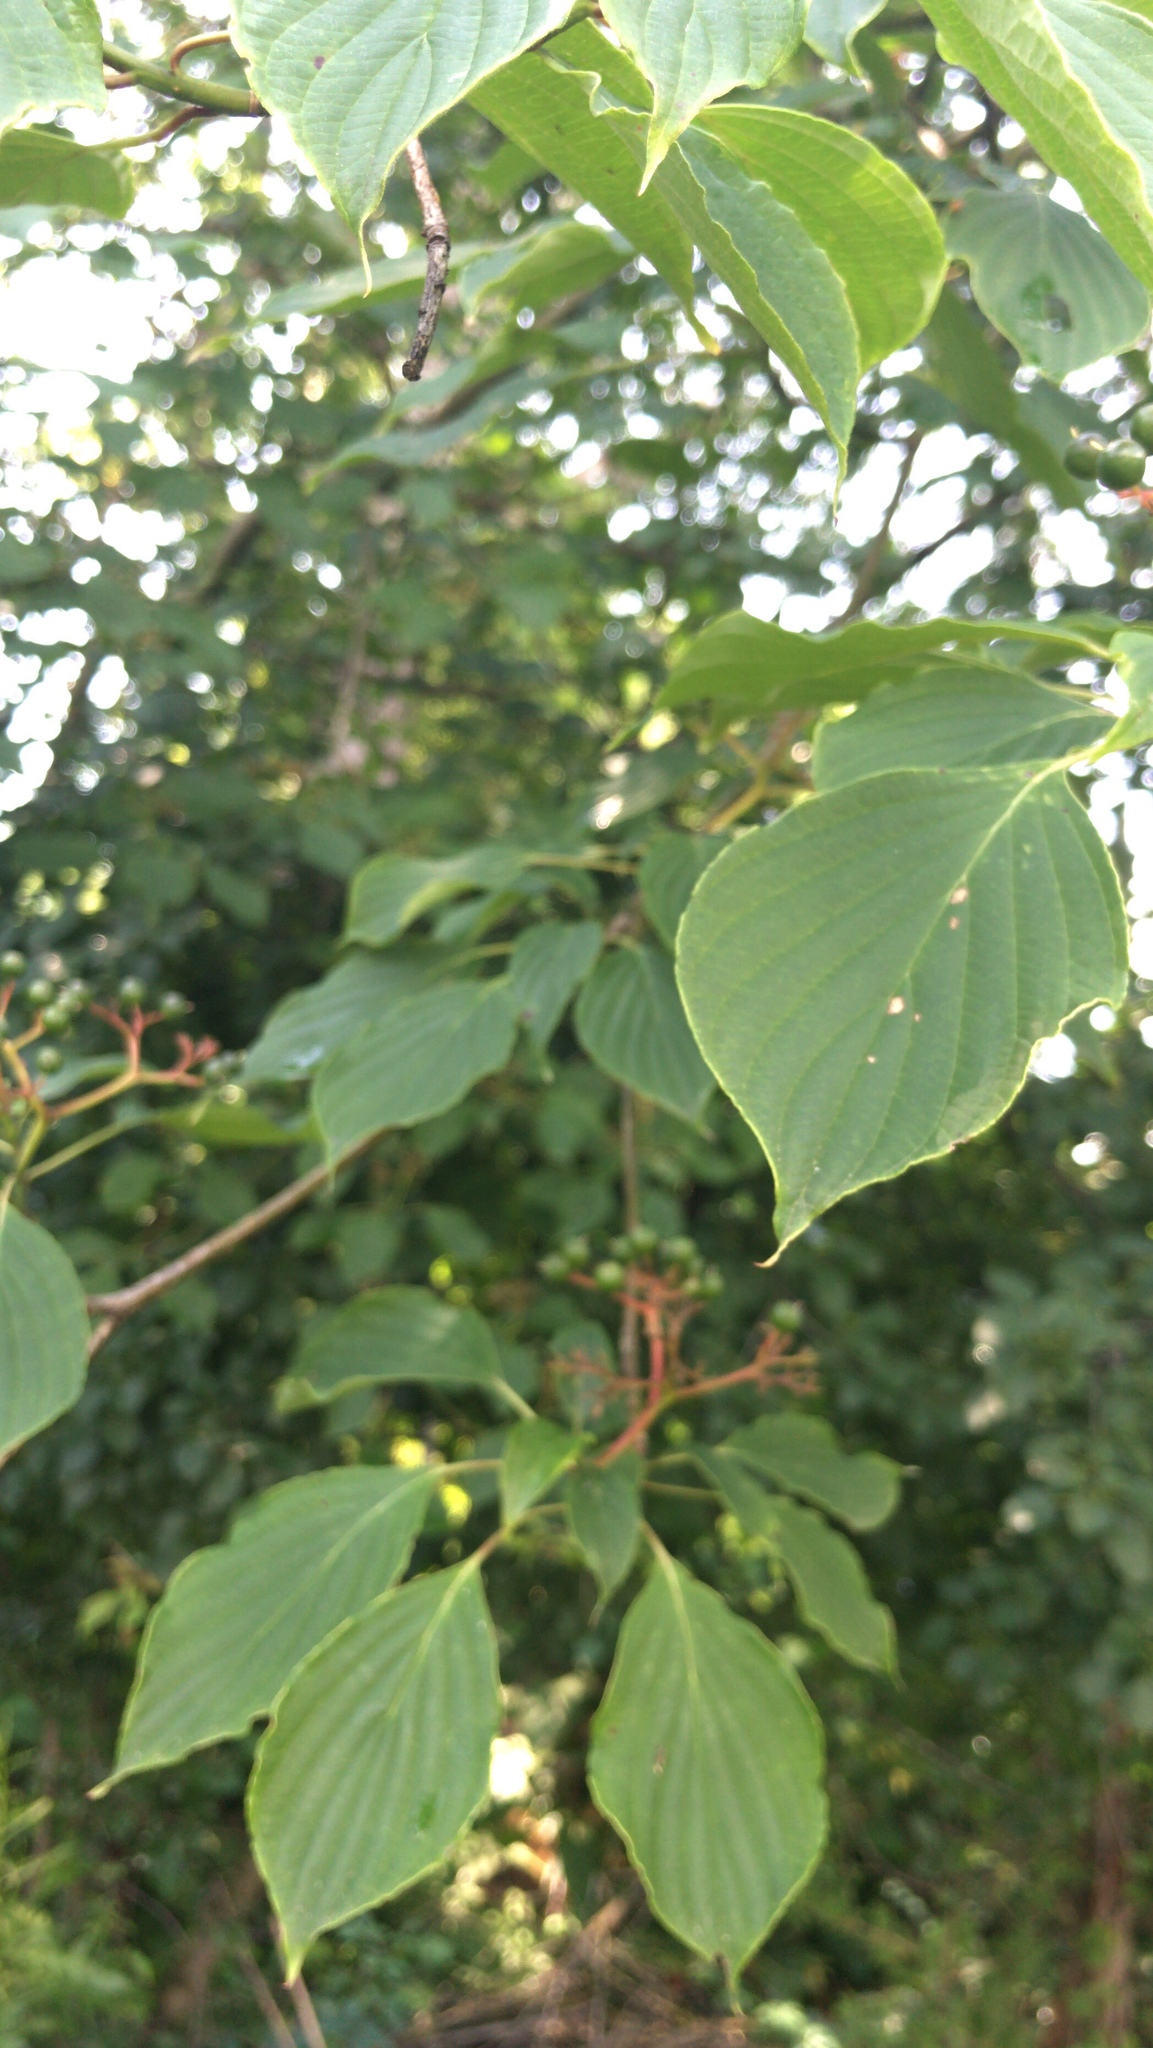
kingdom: Plantae
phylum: Tracheophyta
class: Magnoliopsida
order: Cornales
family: Cornaceae
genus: Cornus
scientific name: Cornus alternifolia
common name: Pagoda dogwood
